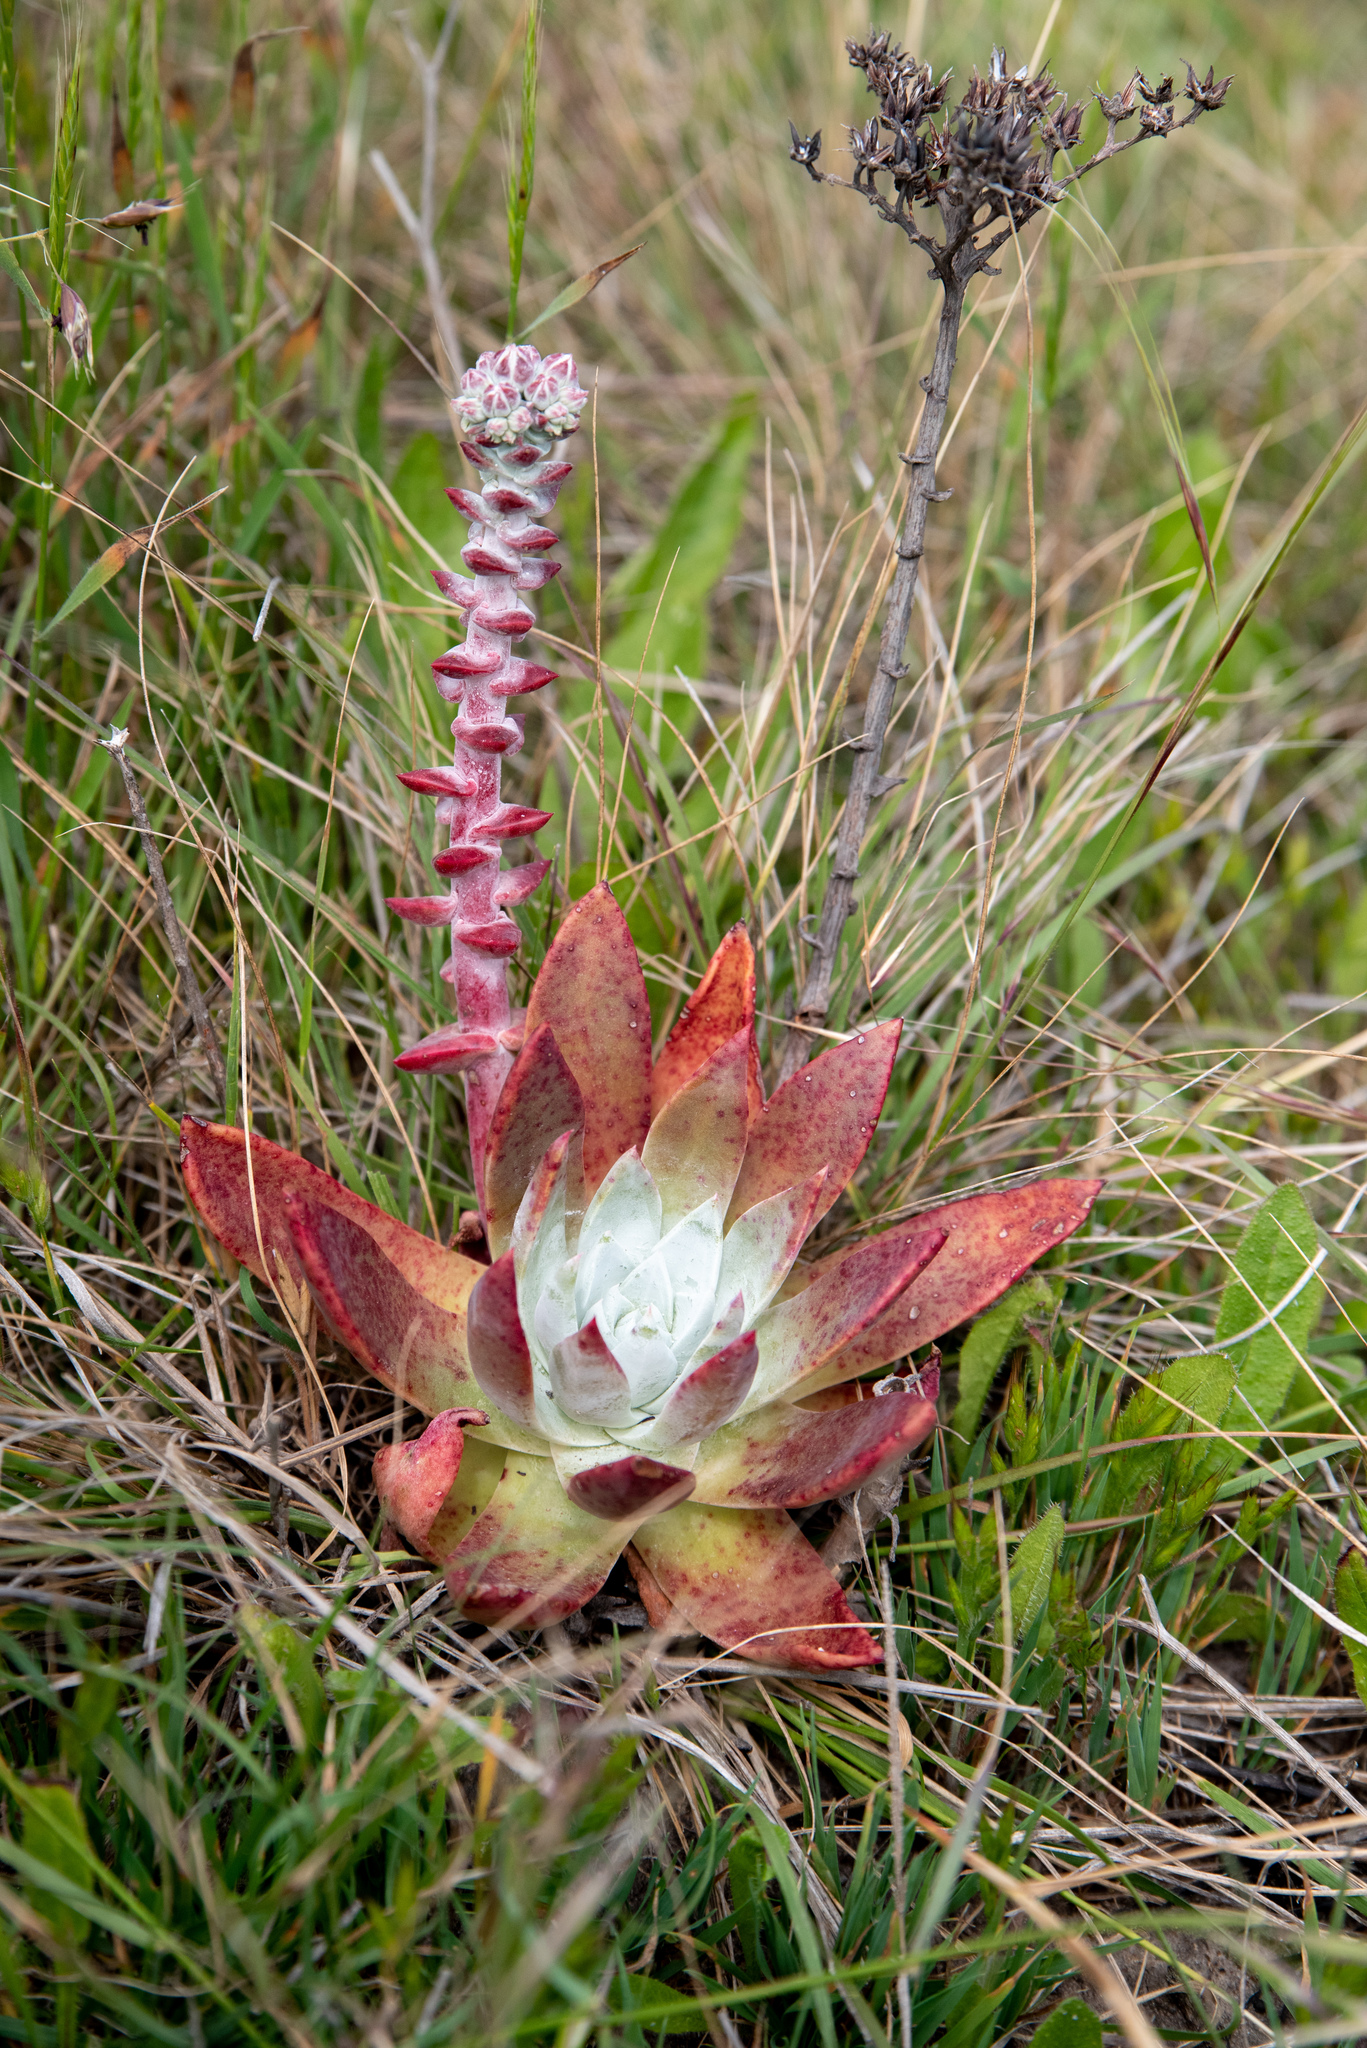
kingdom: Plantae
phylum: Tracheophyta
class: Magnoliopsida
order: Saxifragales
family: Crassulaceae
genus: Dudleya
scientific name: Dudleya palmeri
